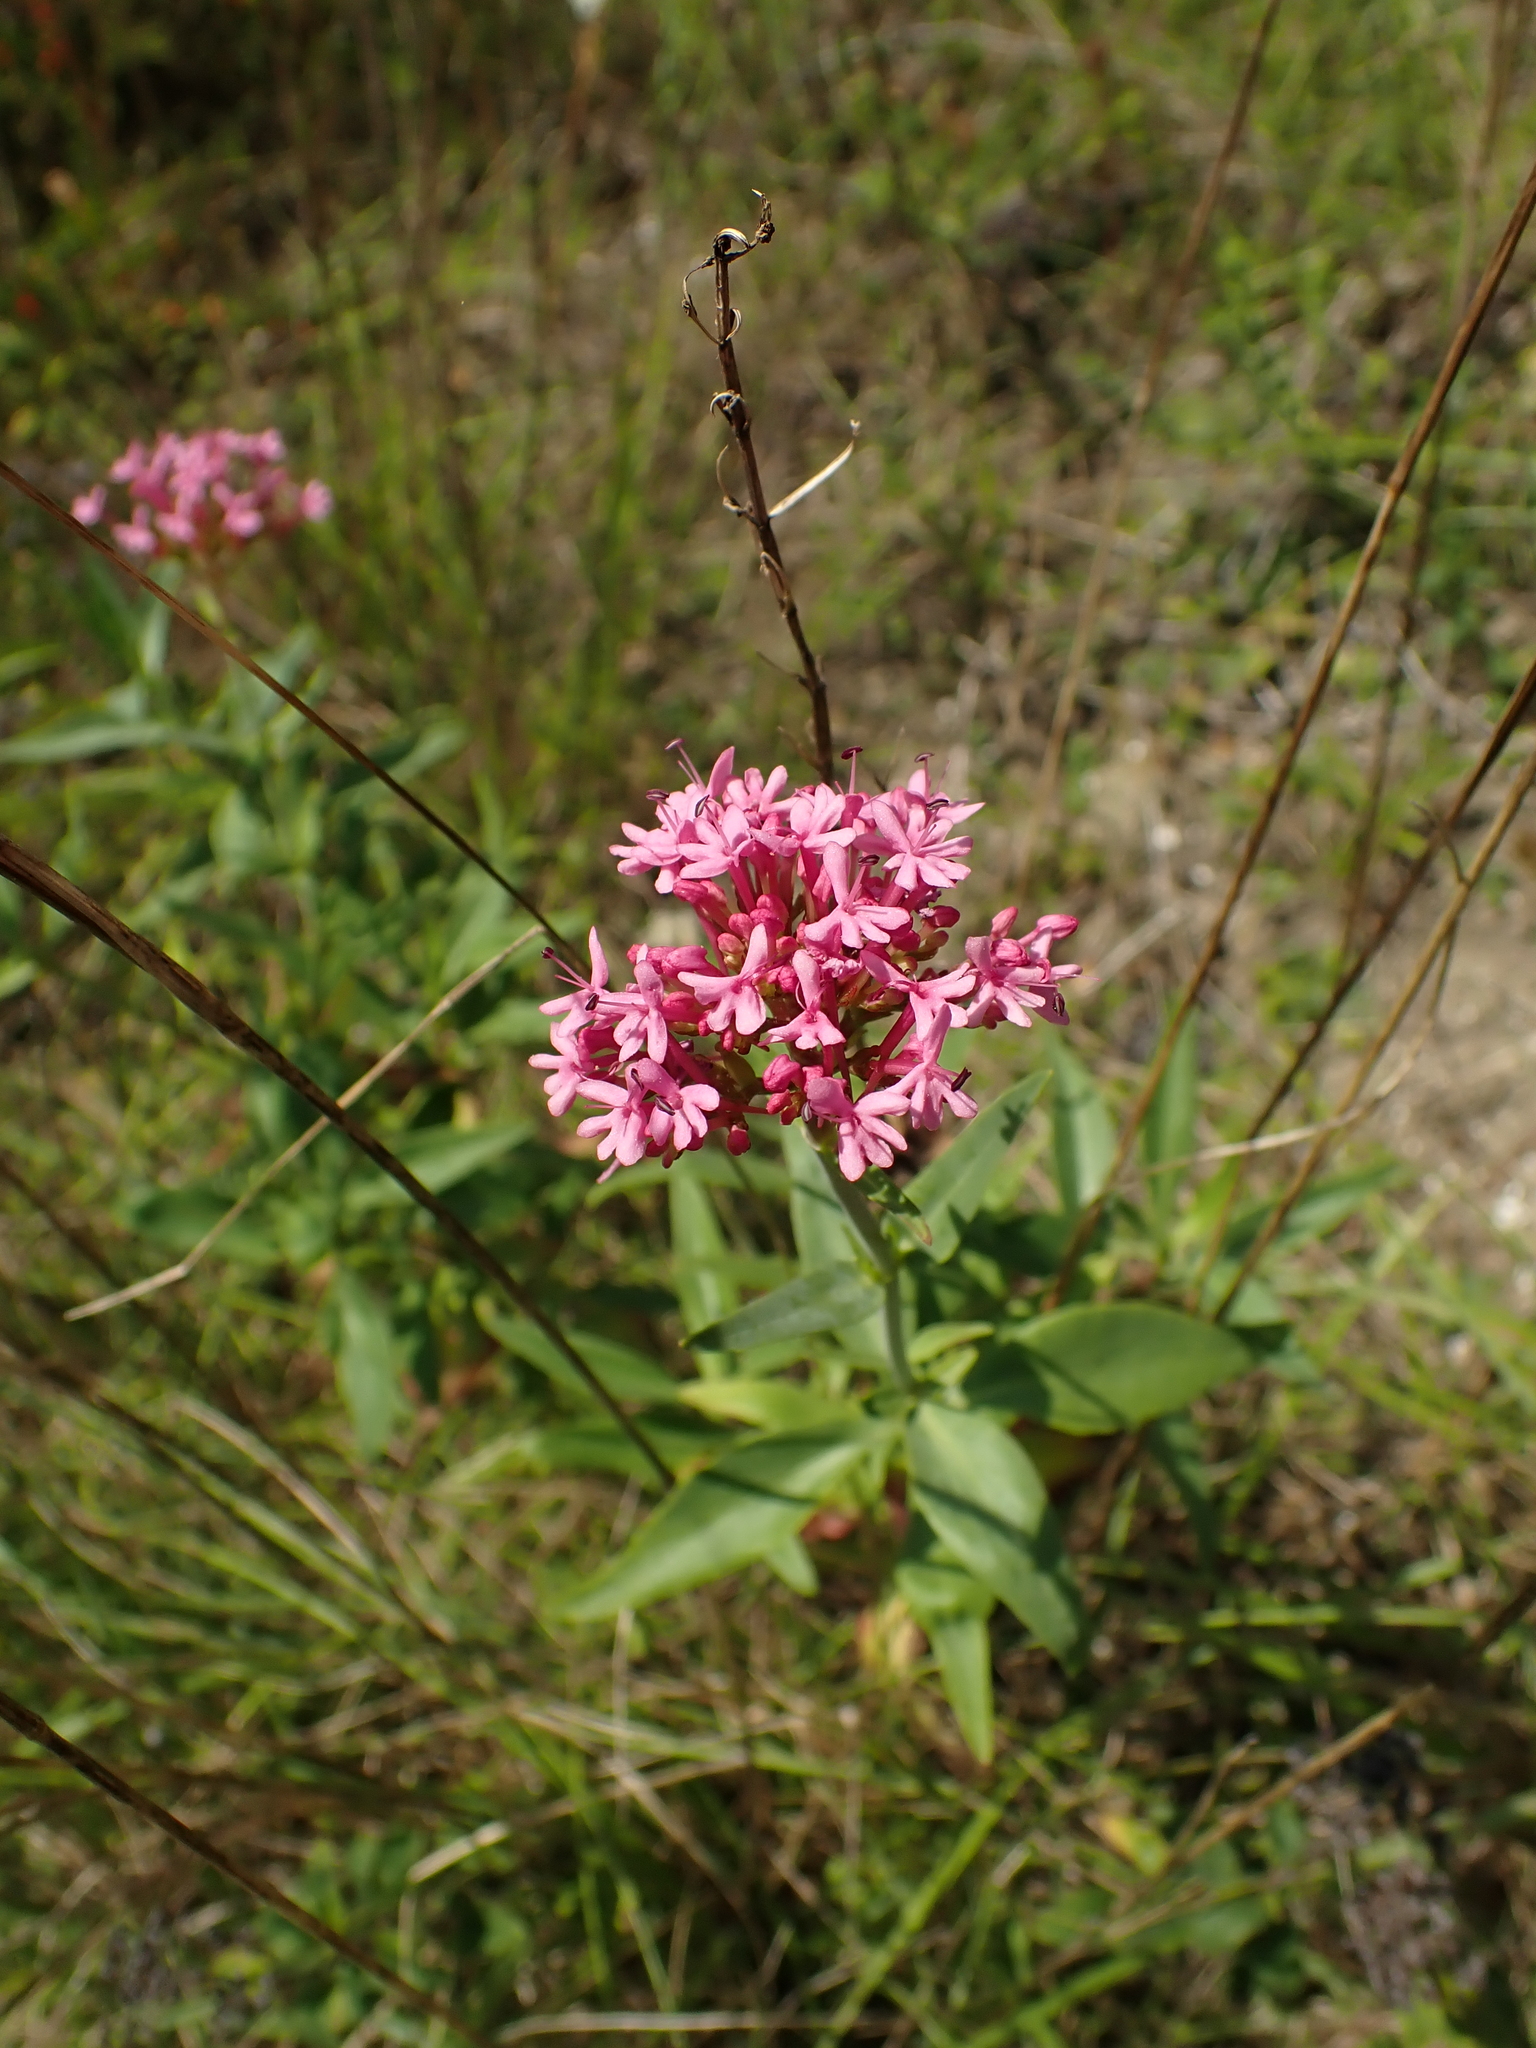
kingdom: Plantae
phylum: Tracheophyta
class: Magnoliopsida
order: Dipsacales
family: Caprifoliaceae
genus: Centranthus
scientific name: Centranthus ruber
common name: Red valerian
